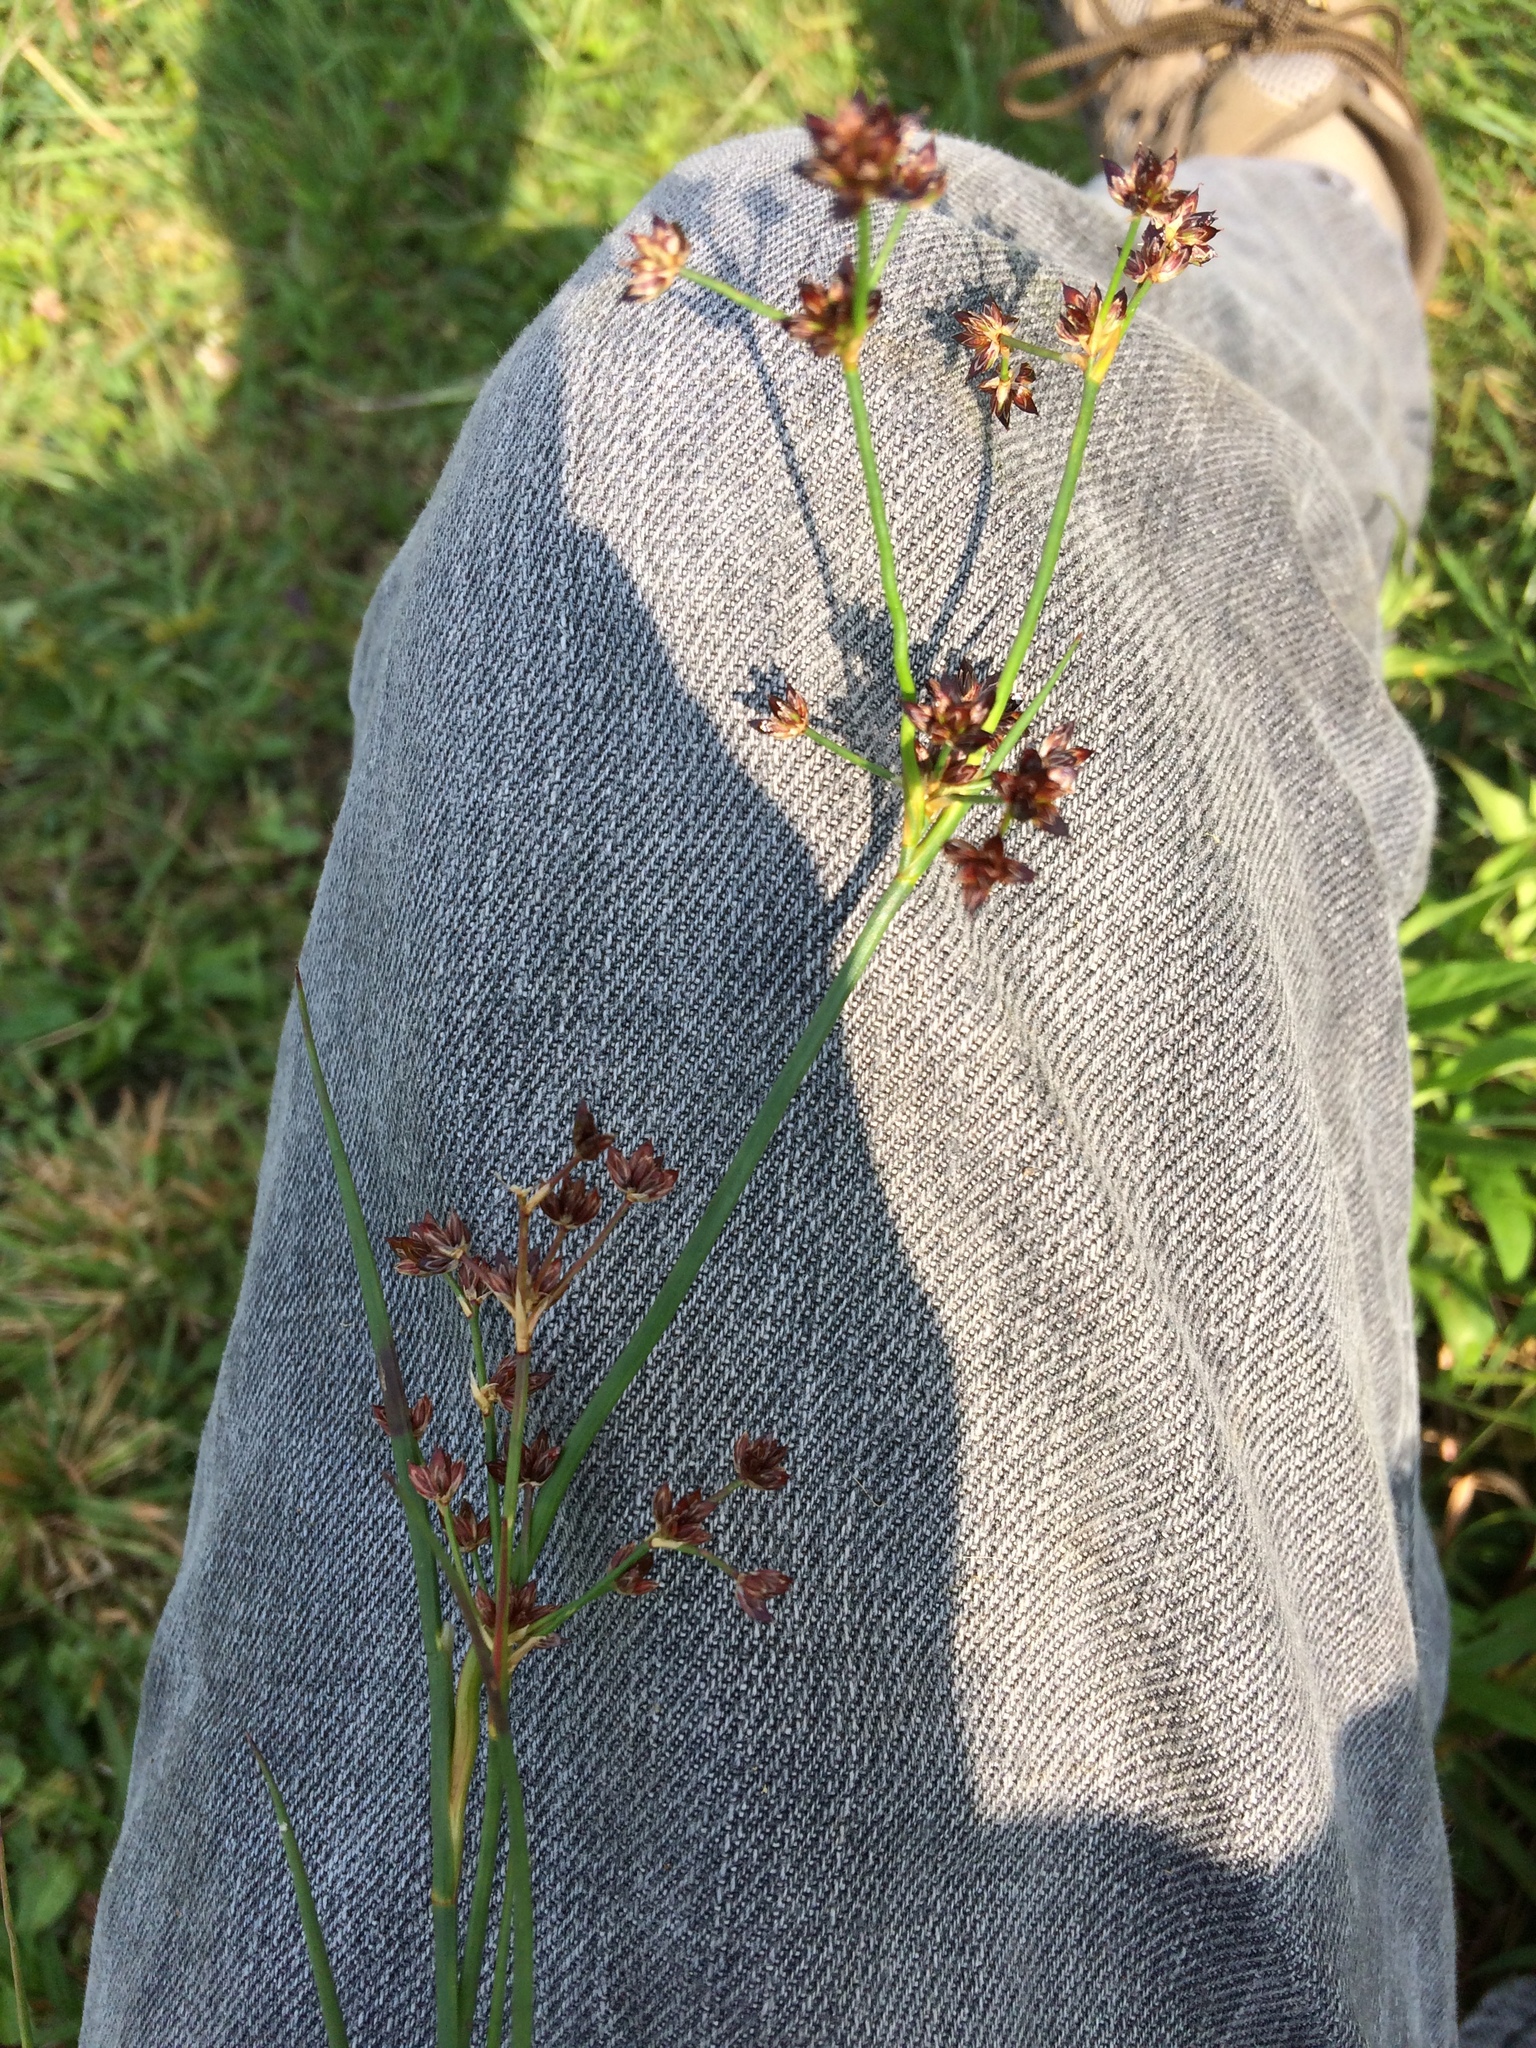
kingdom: Plantae
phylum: Tracheophyta
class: Liliopsida
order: Poales
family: Juncaceae
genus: Juncus
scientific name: Juncus articulatus
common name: Jointed rush
